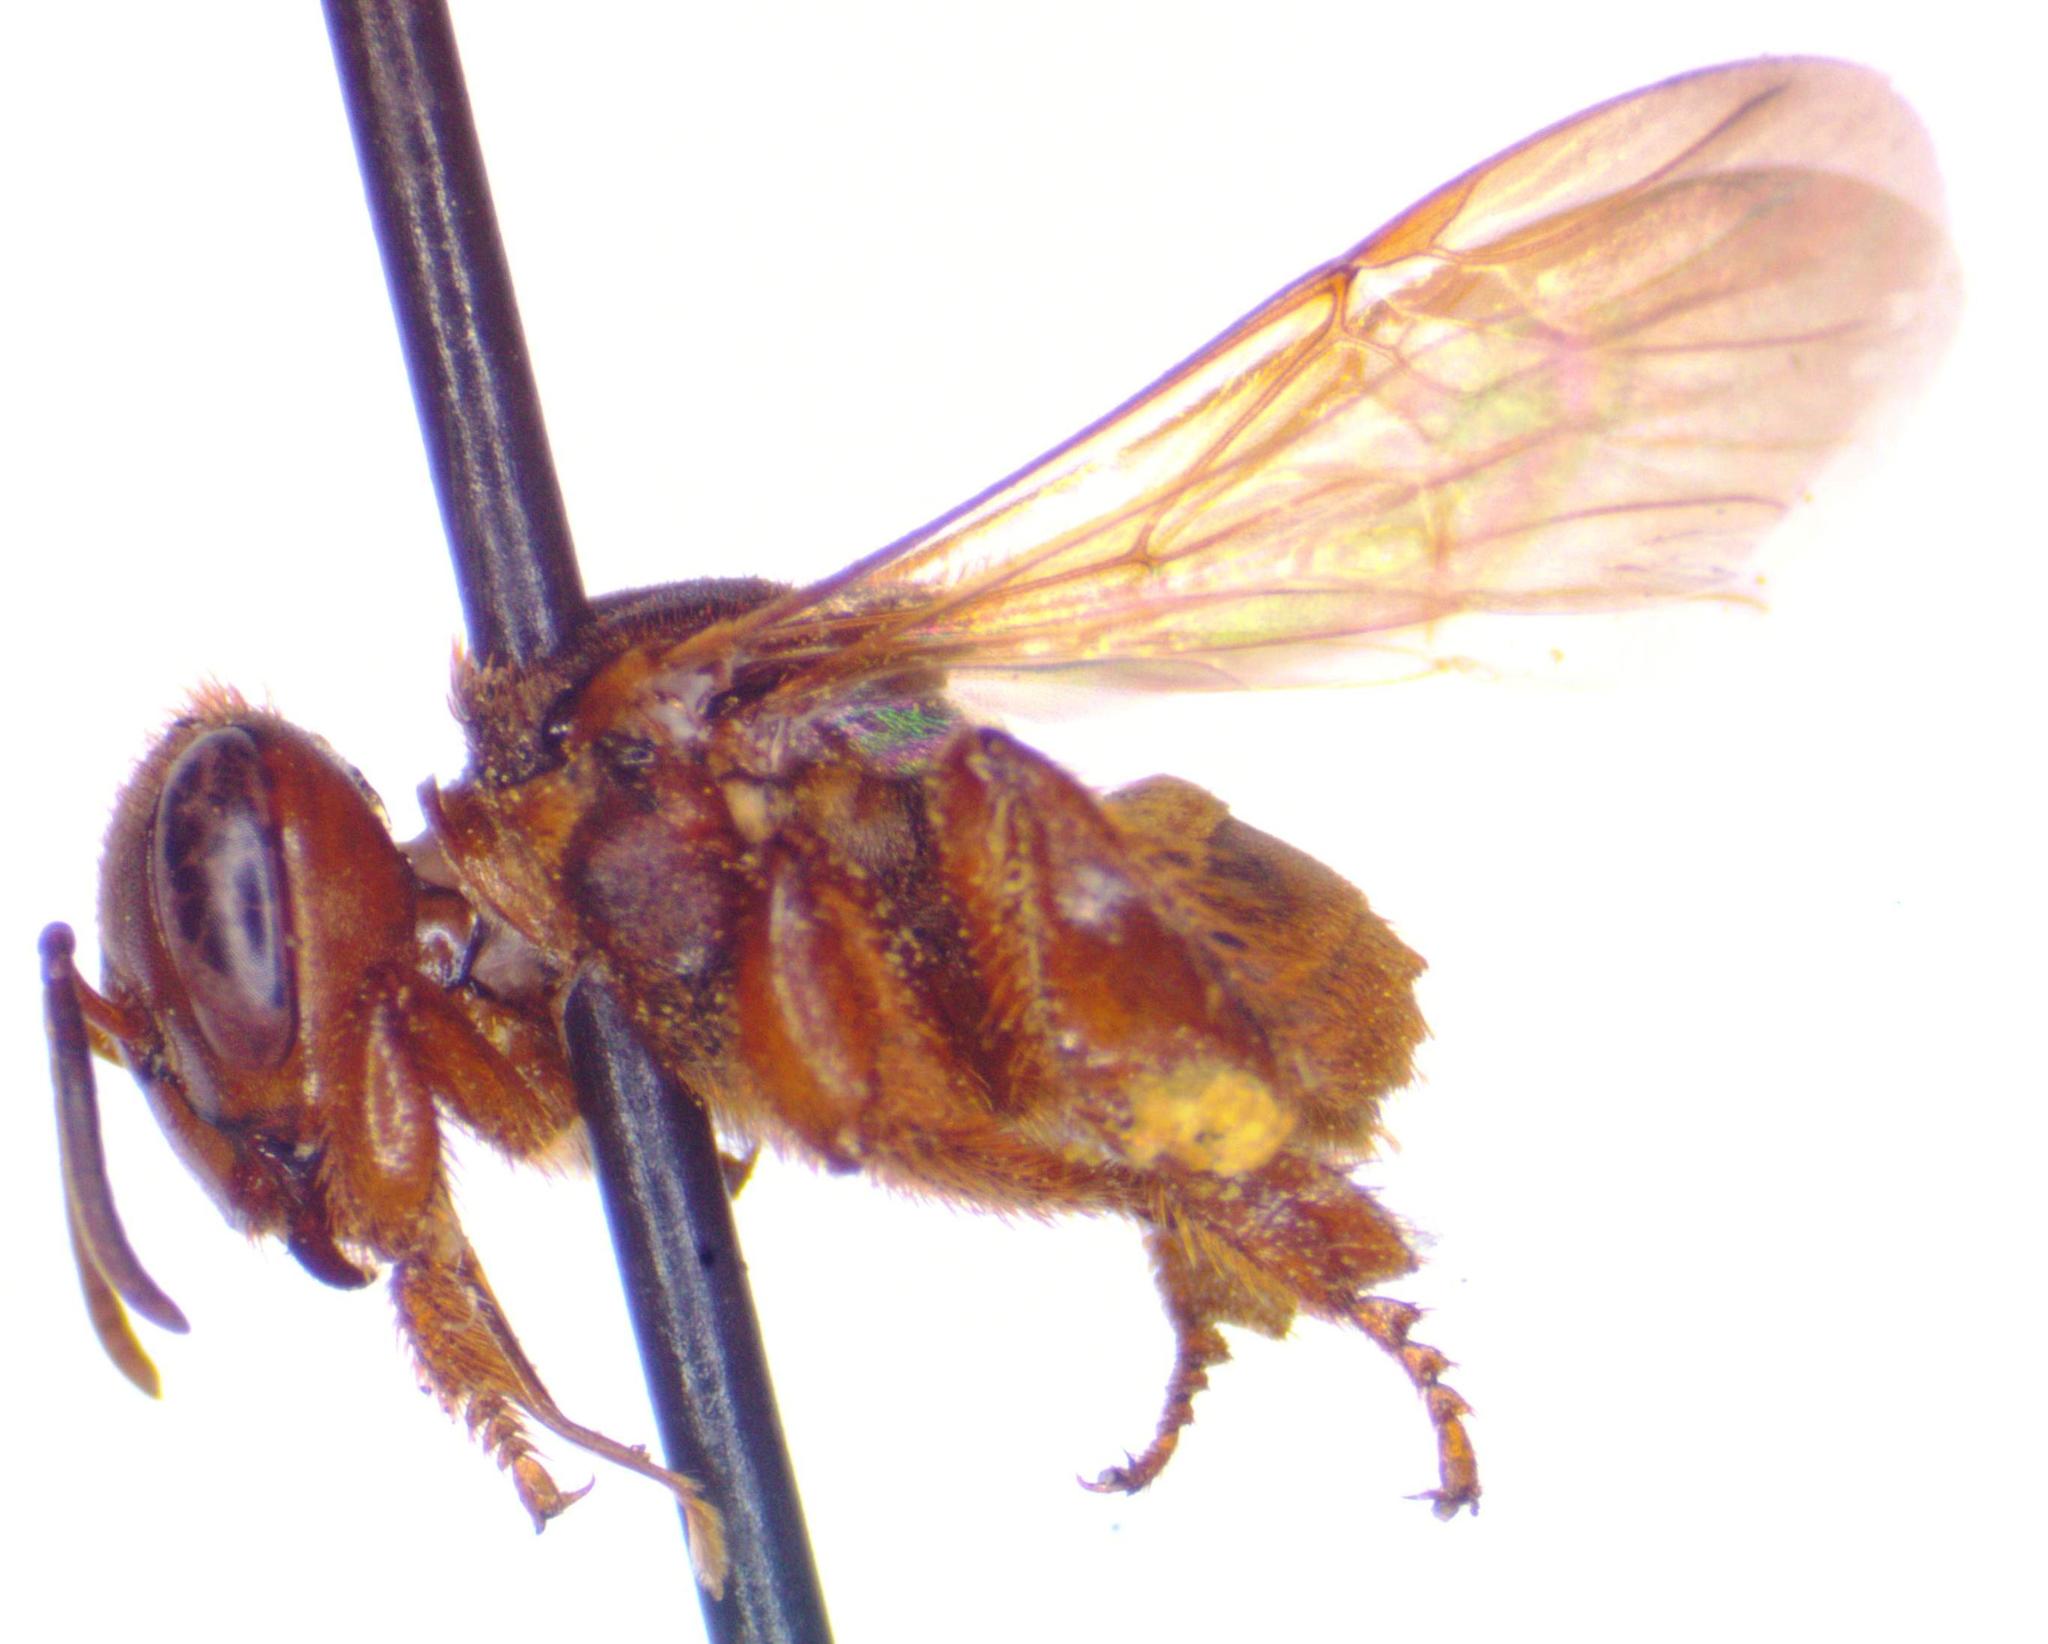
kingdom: Animalia
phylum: Arthropoda
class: Insecta
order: Hymenoptera
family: Apidae
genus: Scaptotrigona
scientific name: Scaptotrigona pectoralis
